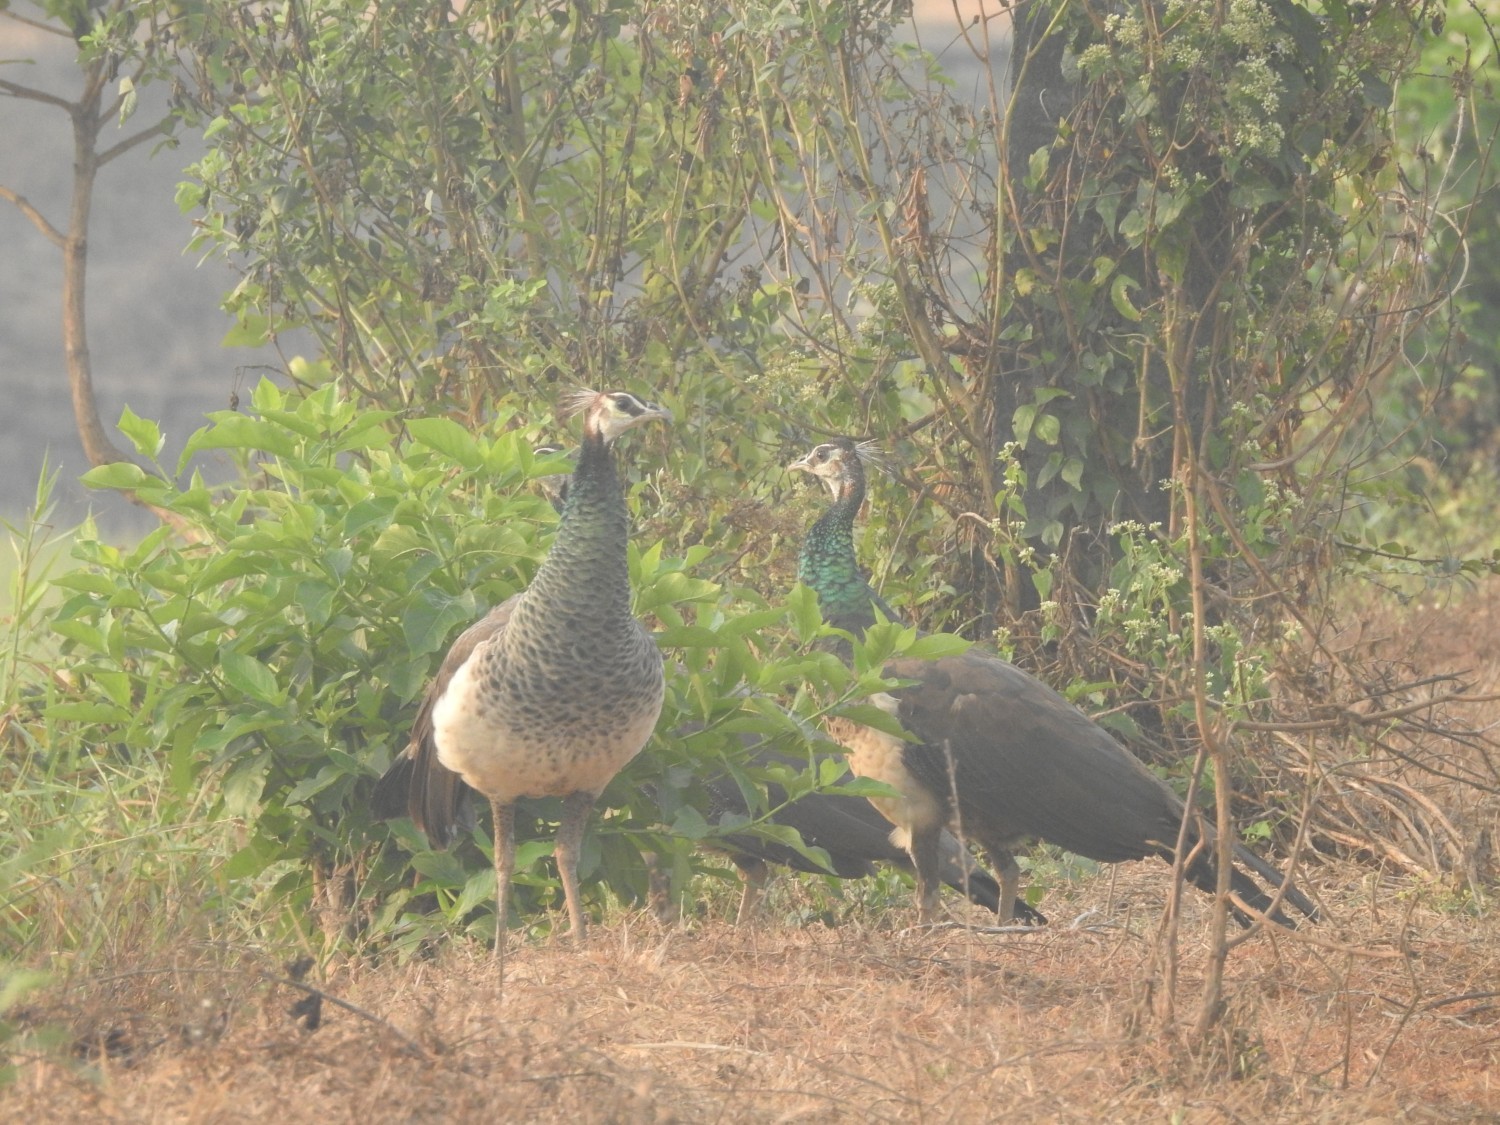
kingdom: Animalia
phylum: Chordata
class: Aves
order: Galliformes
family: Phasianidae
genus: Pavo
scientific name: Pavo cristatus
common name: Indian peafowl
